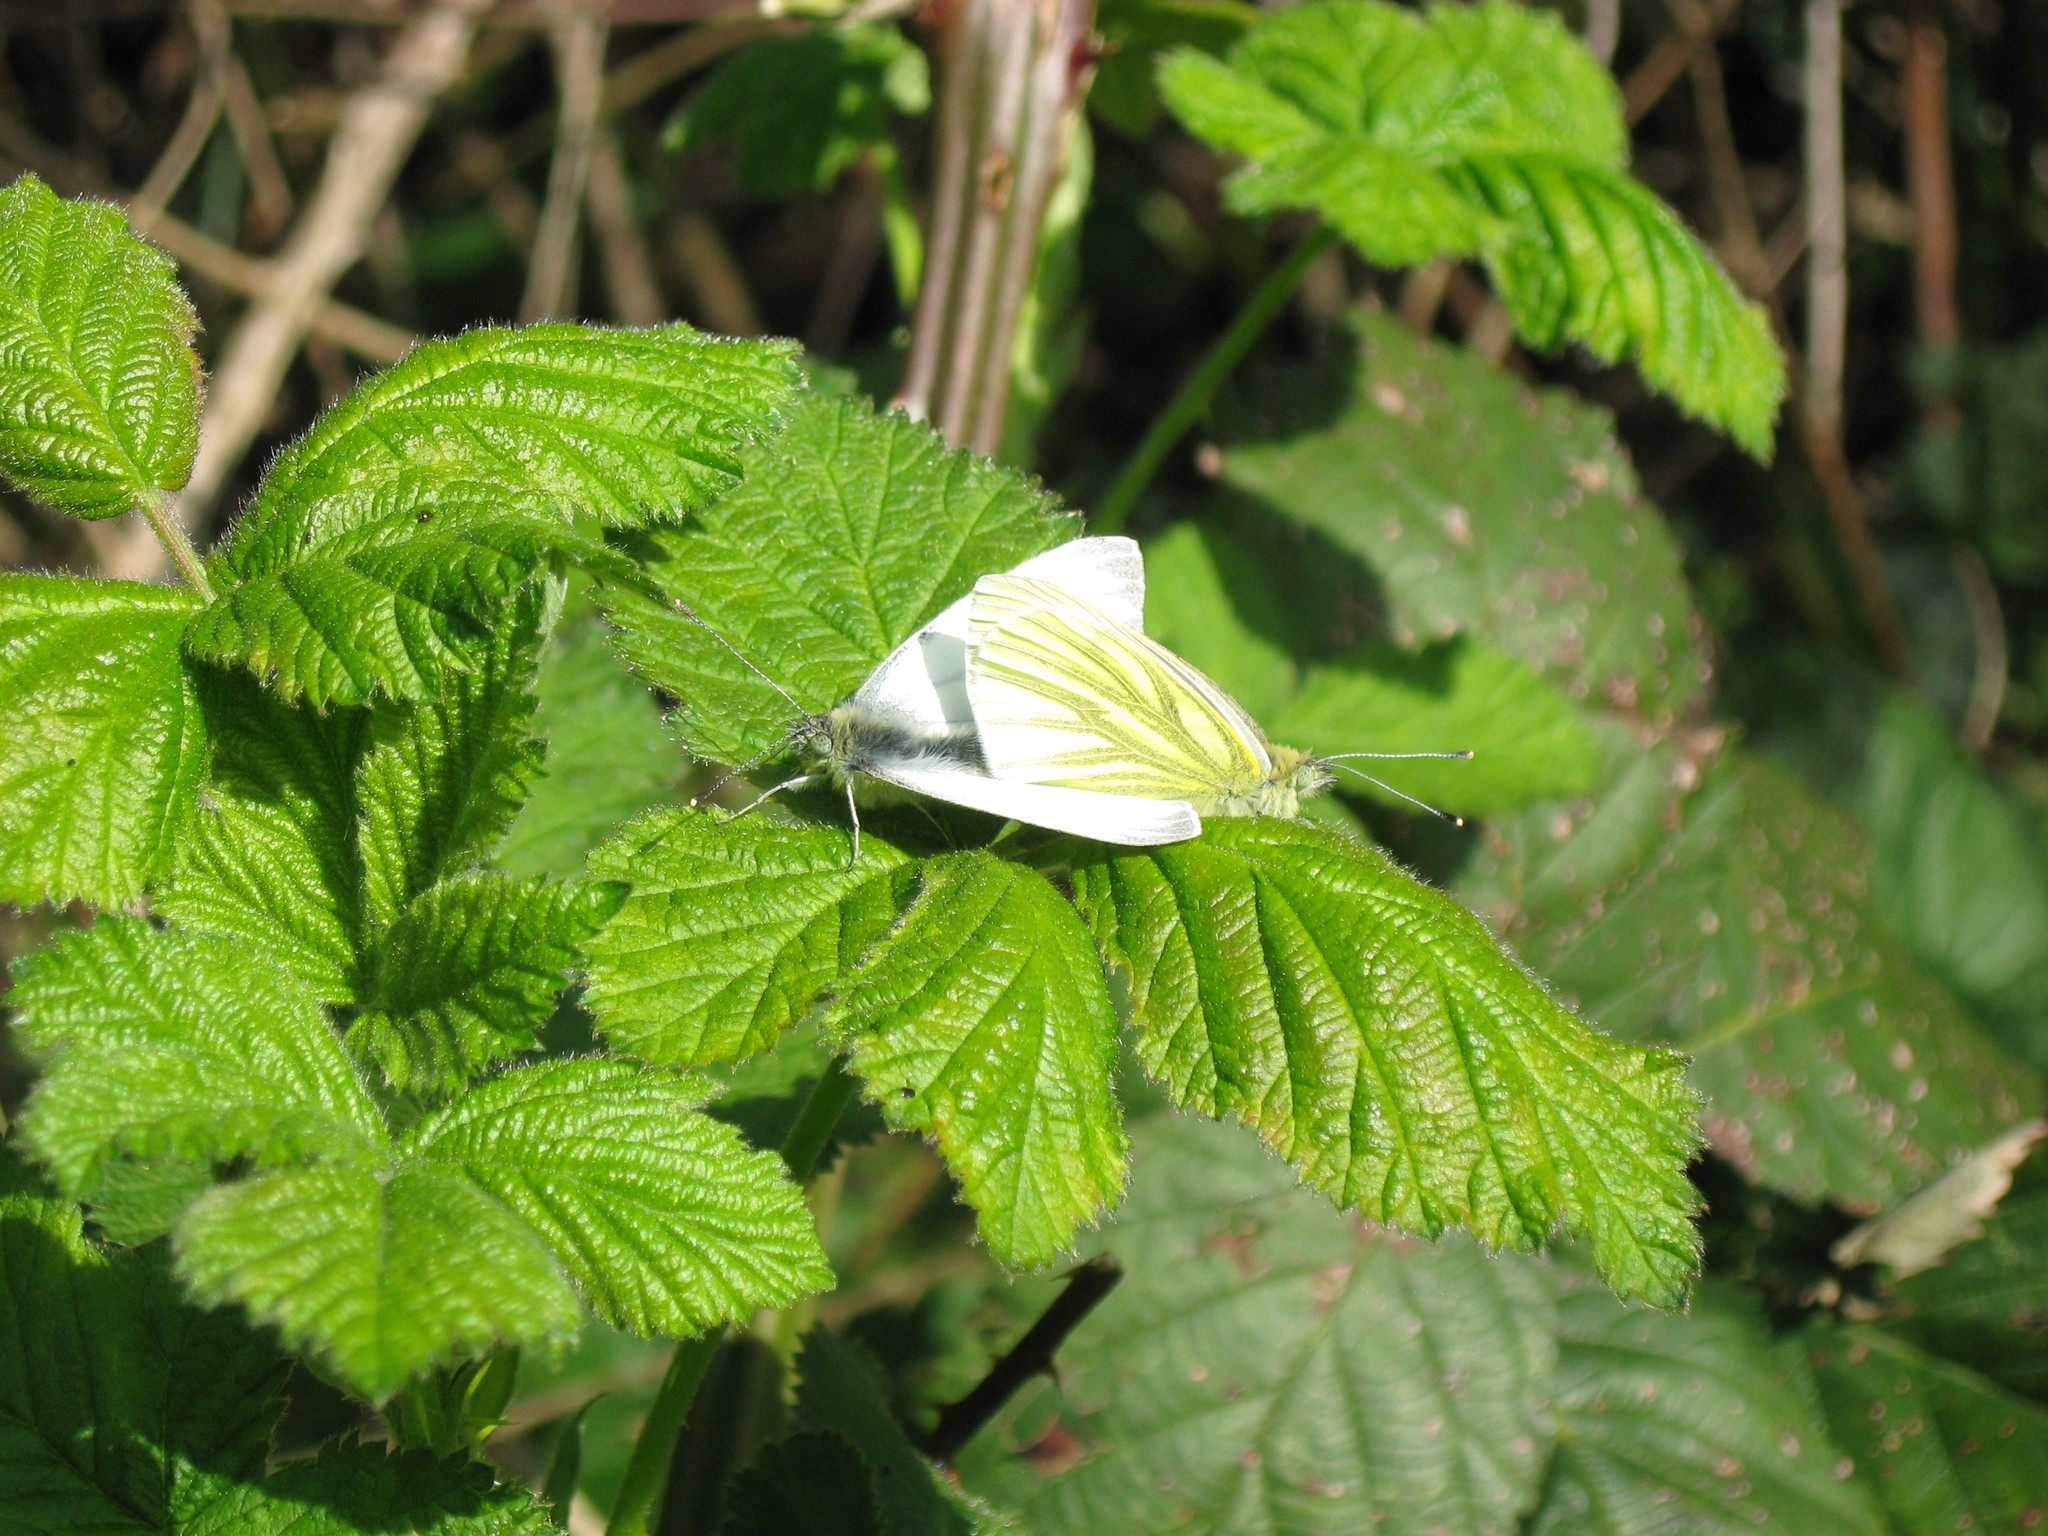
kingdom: Animalia
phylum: Arthropoda
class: Insecta
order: Lepidoptera
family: Pieridae
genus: Pieris
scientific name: Pieris napi
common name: Green-veined white
